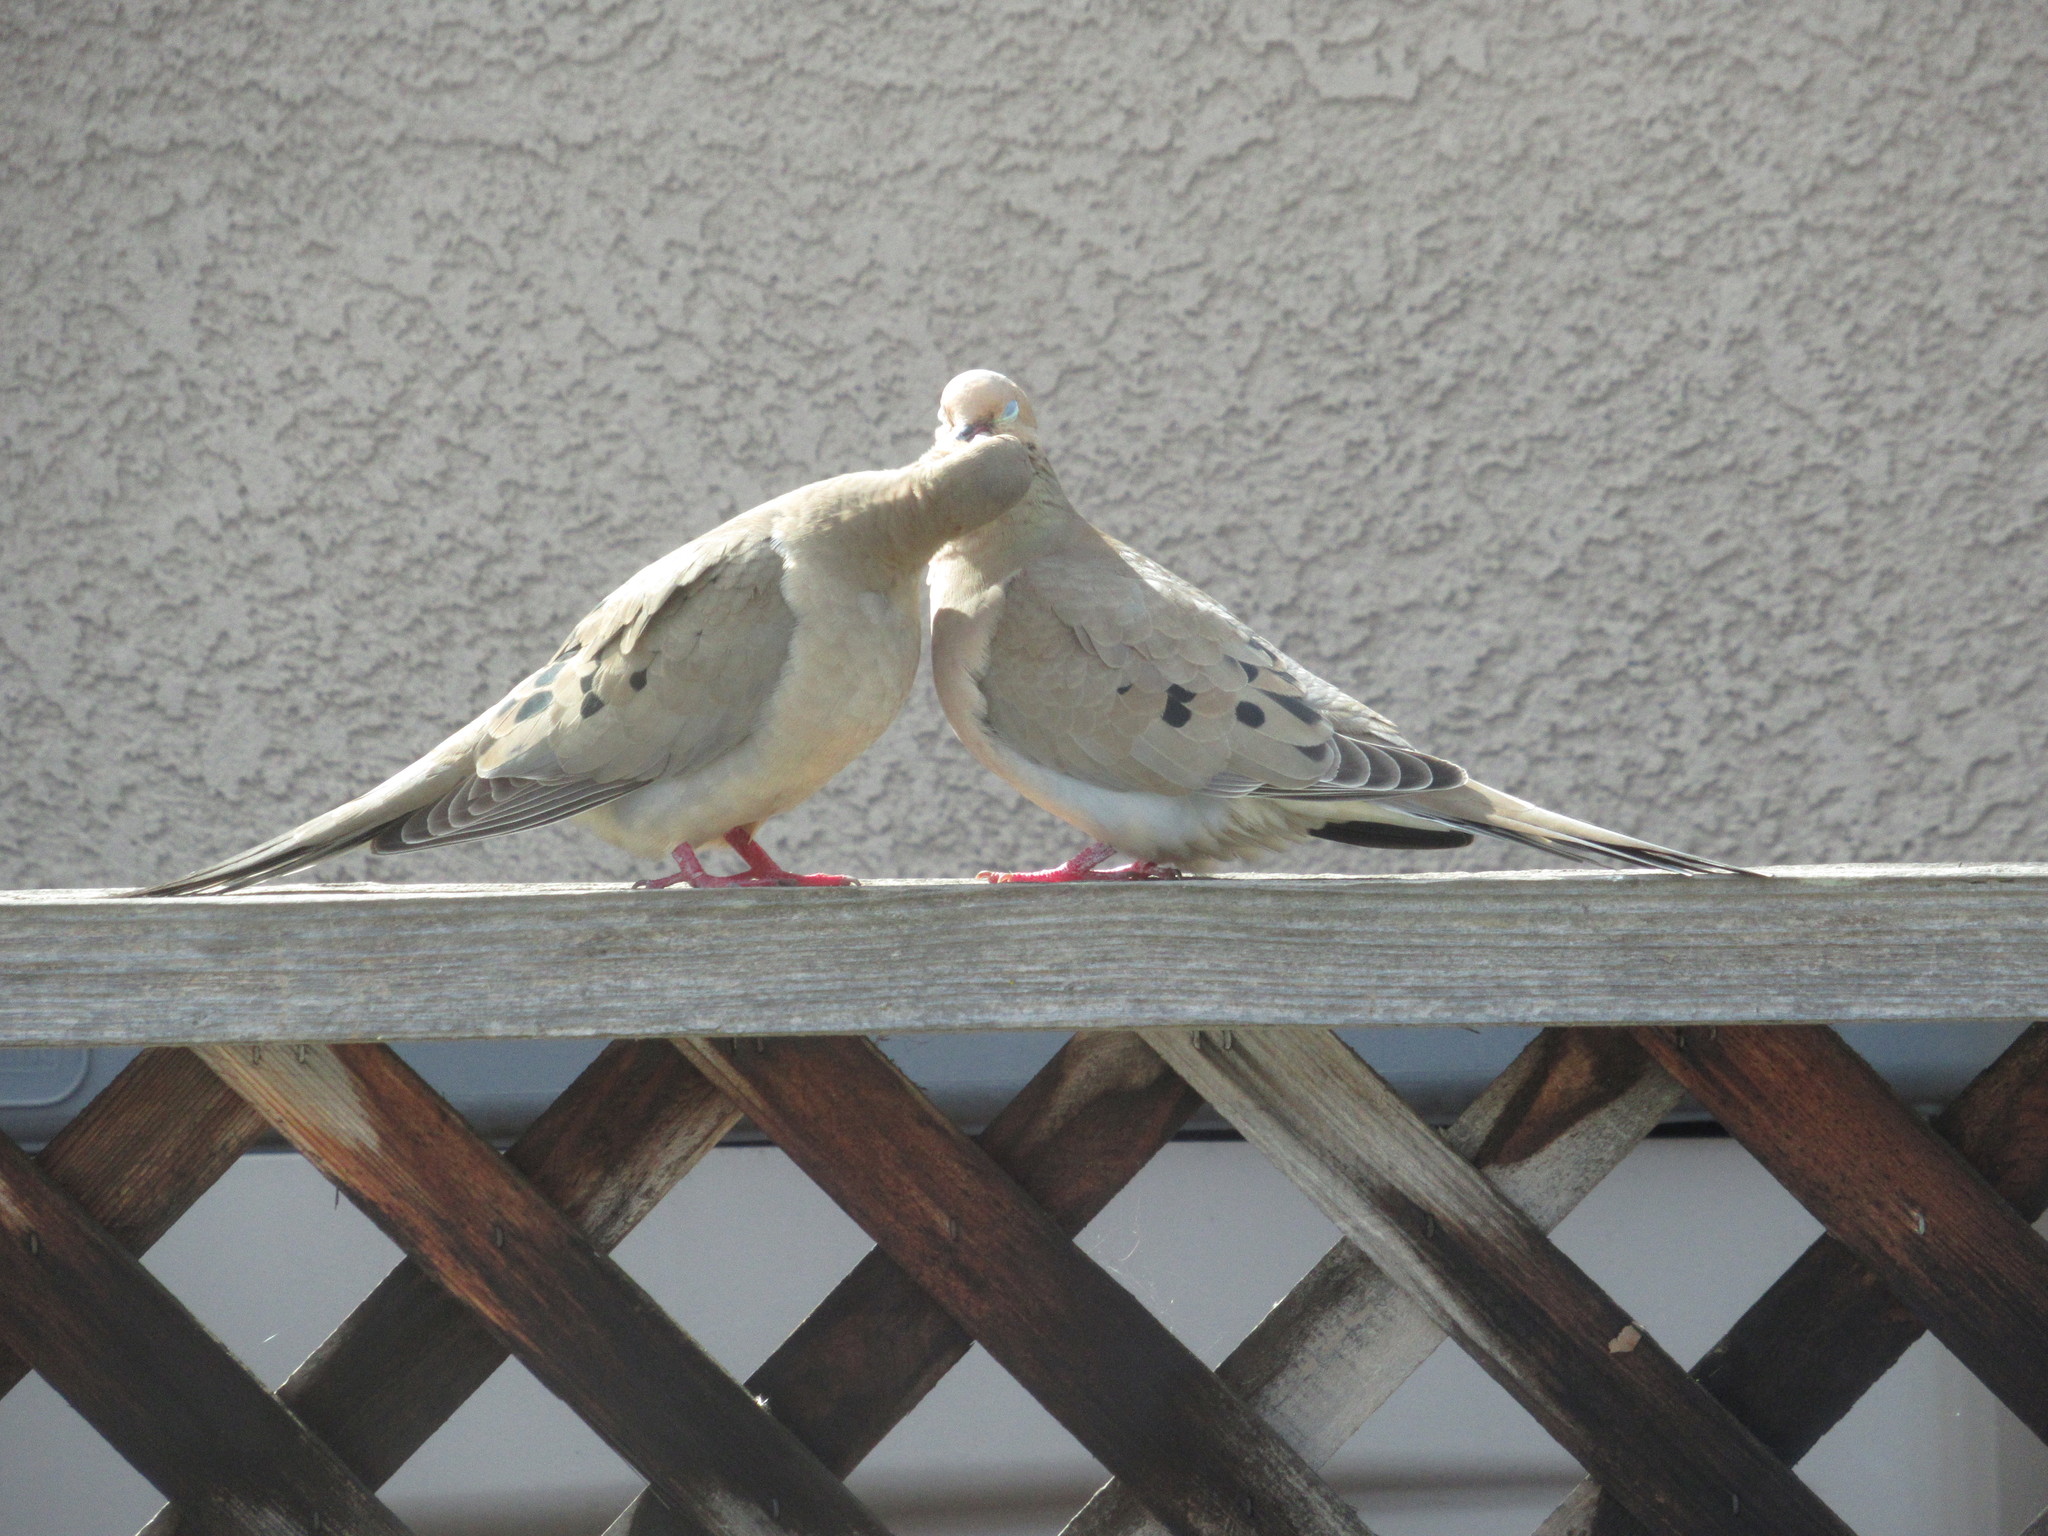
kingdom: Animalia
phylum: Chordata
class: Aves
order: Columbiformes
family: Columbidae
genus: Zenaida
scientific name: Zenaida macroura
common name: Mourning dove
